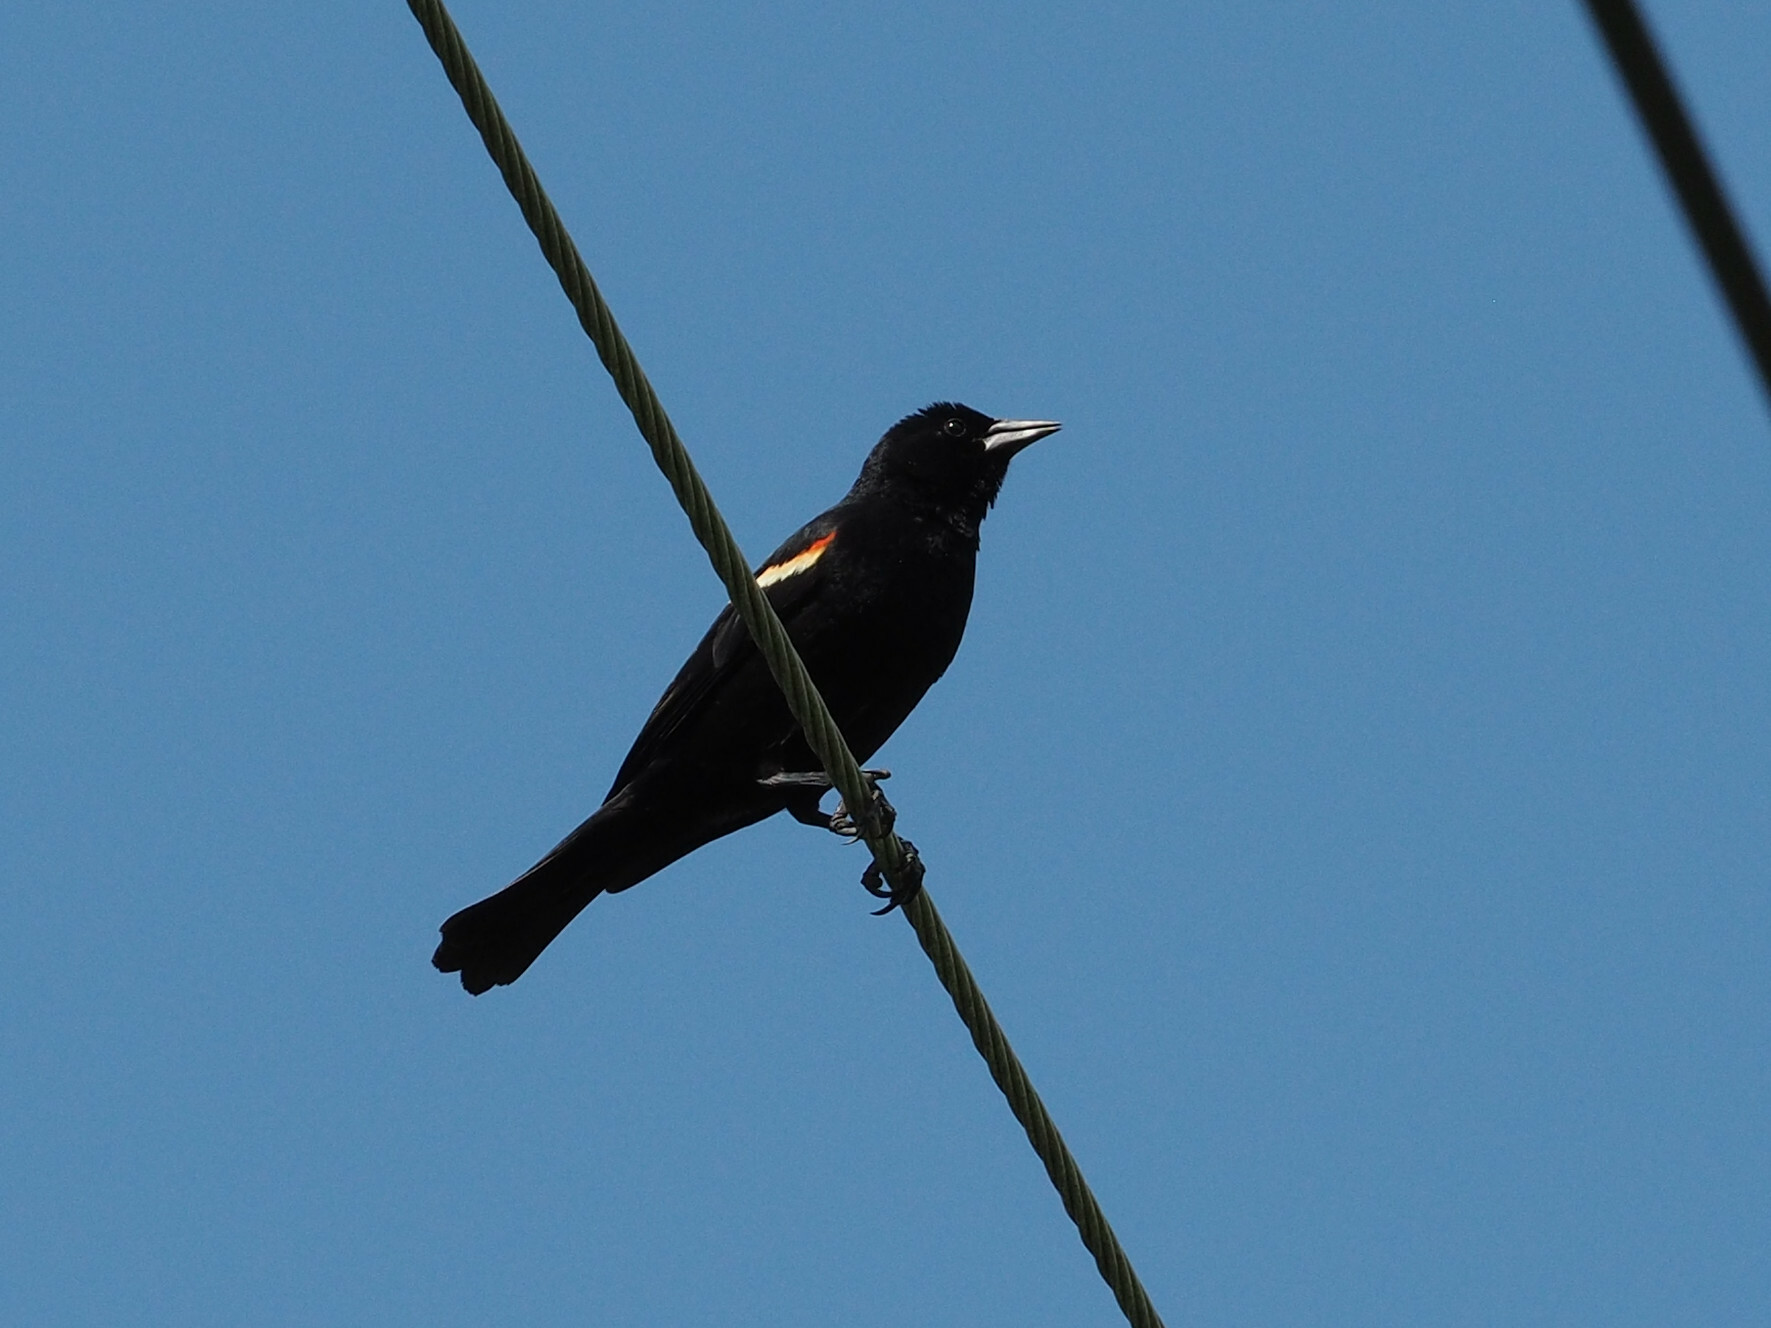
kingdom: Animalia
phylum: Chordata
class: Aves
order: Passeriformes
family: Icteridae
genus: Agelaius
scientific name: Agelaius phoeniceus
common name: Red-winged blackbird
